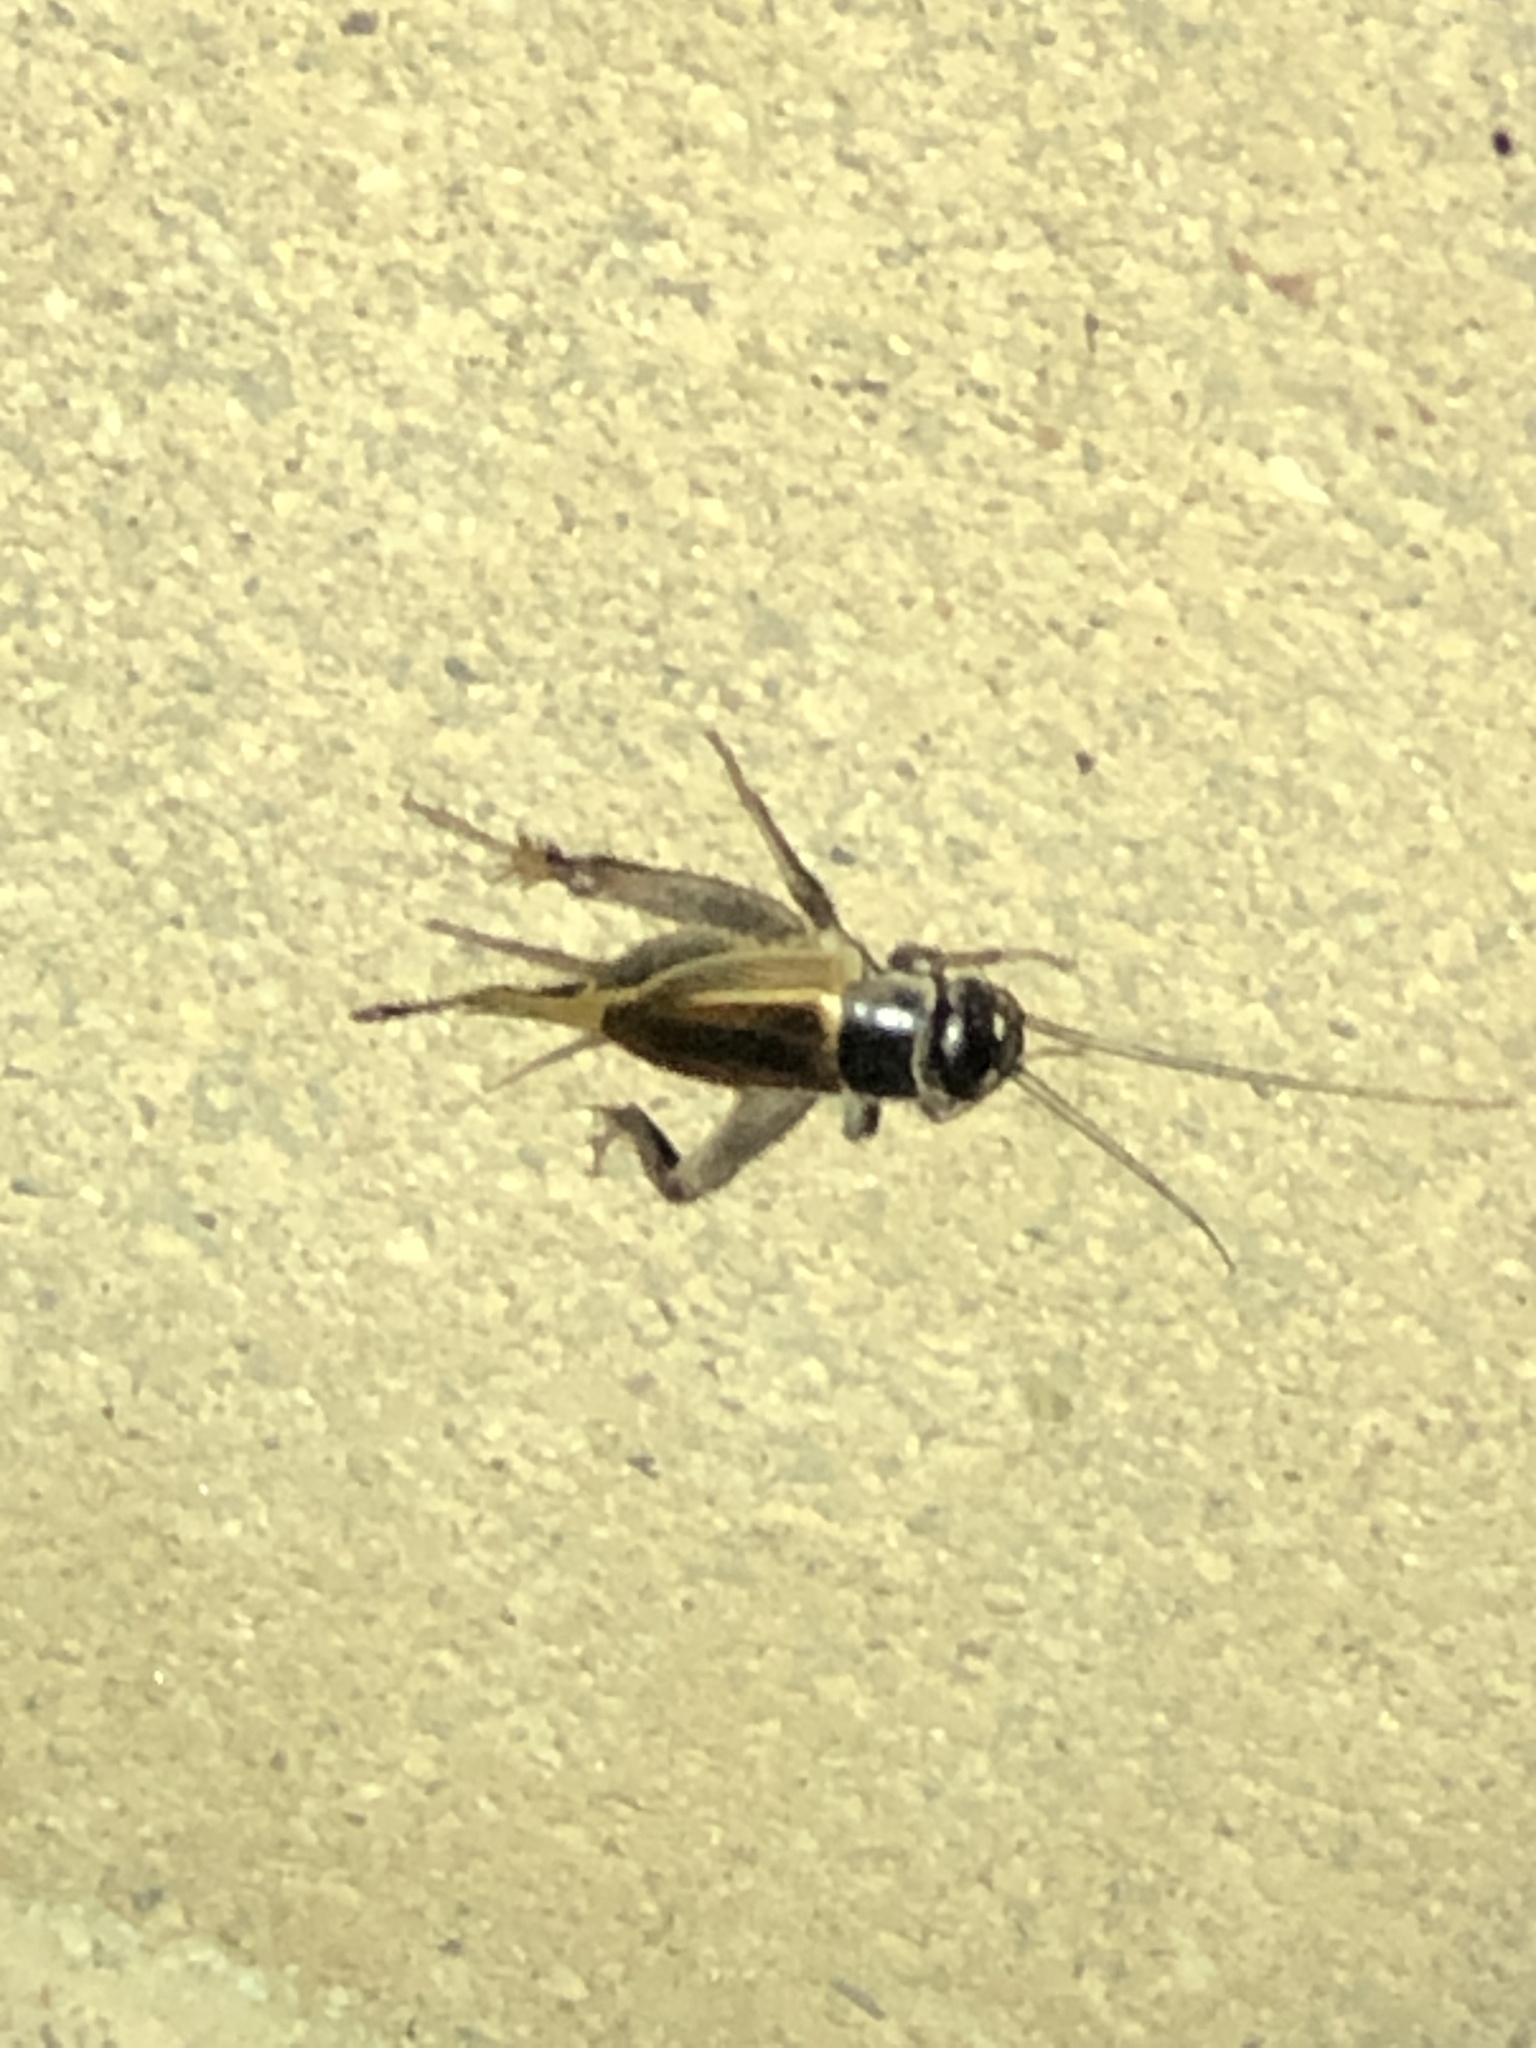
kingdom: Animalia
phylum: Arthropoda
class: Insecta
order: Orthoptera
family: Gryllidae
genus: Gryllus
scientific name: Gryllus
